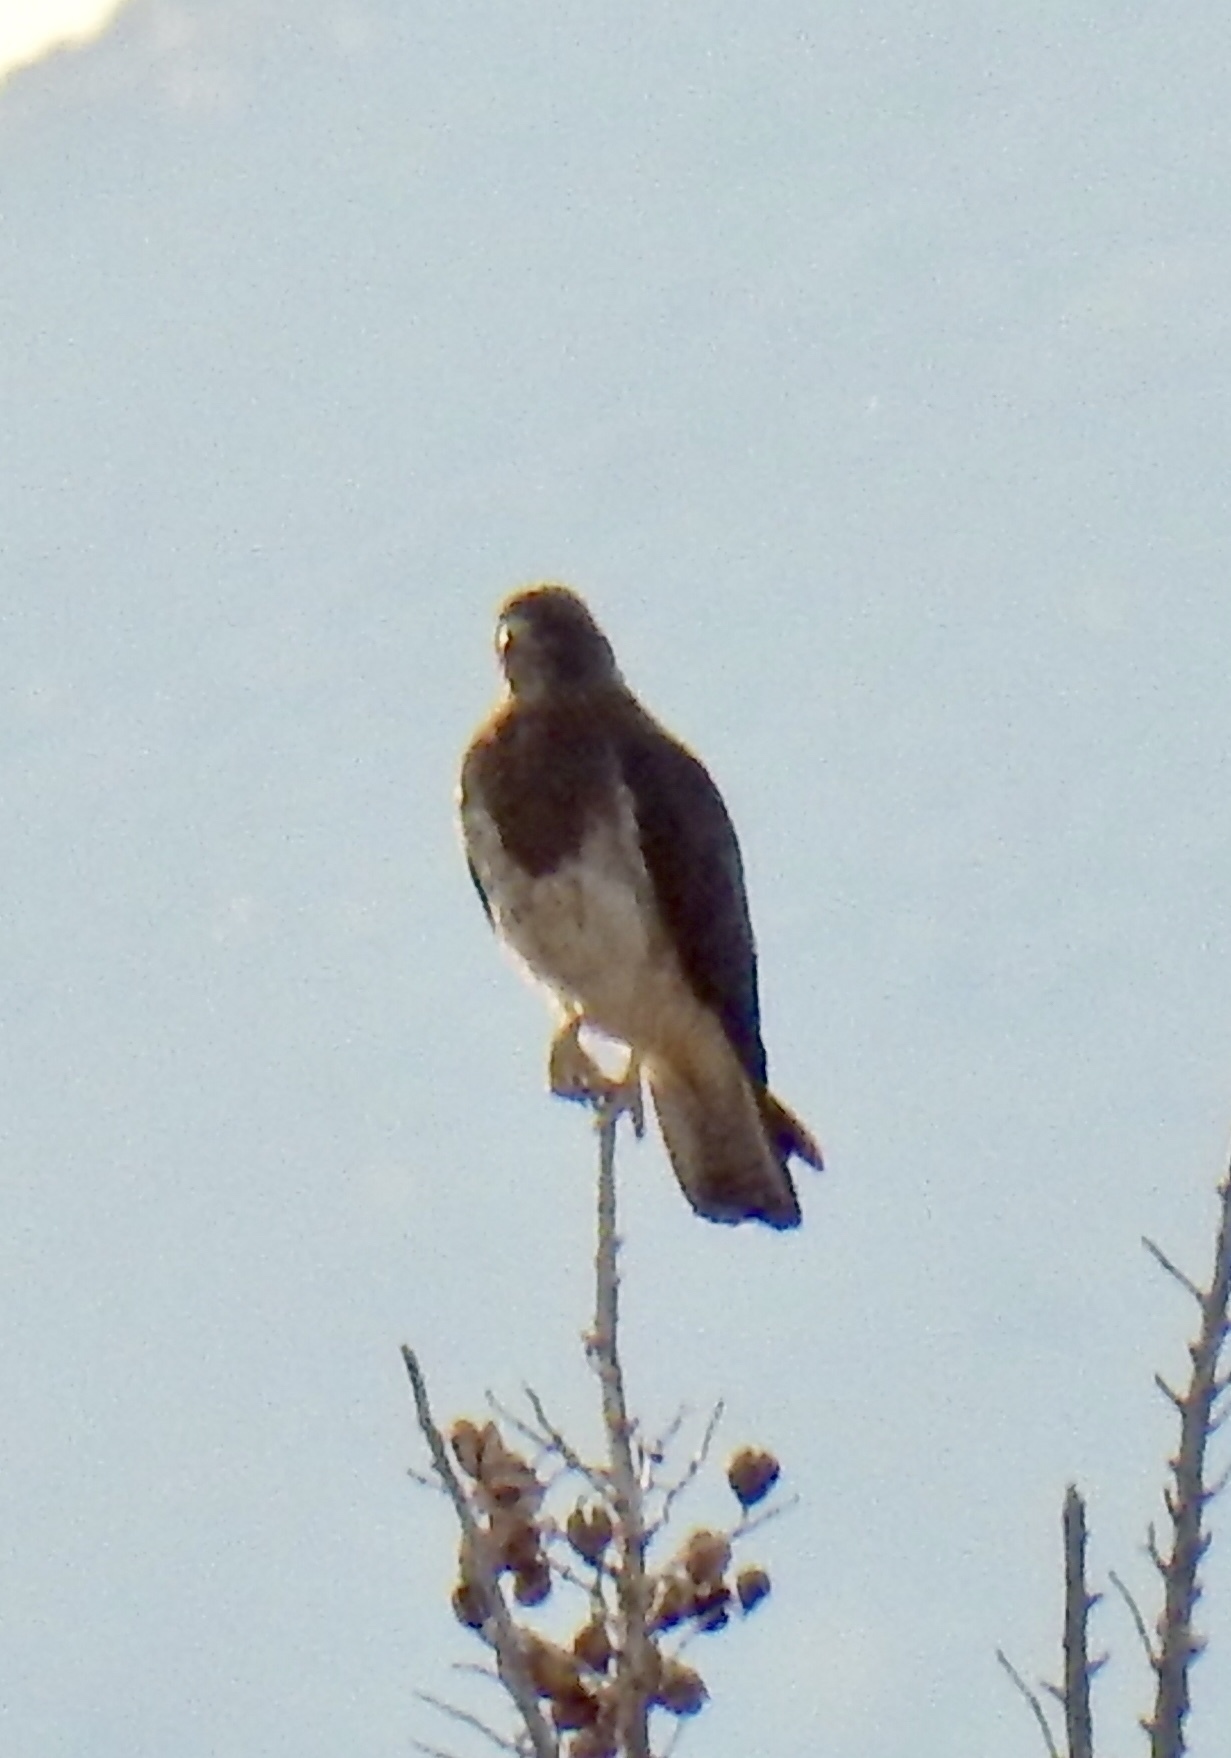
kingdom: Animalia
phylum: Chordata
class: Aves
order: Accipitriformes
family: Accipitridae
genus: Buteo
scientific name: Buteo swainsoni
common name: Swainson's hawk
